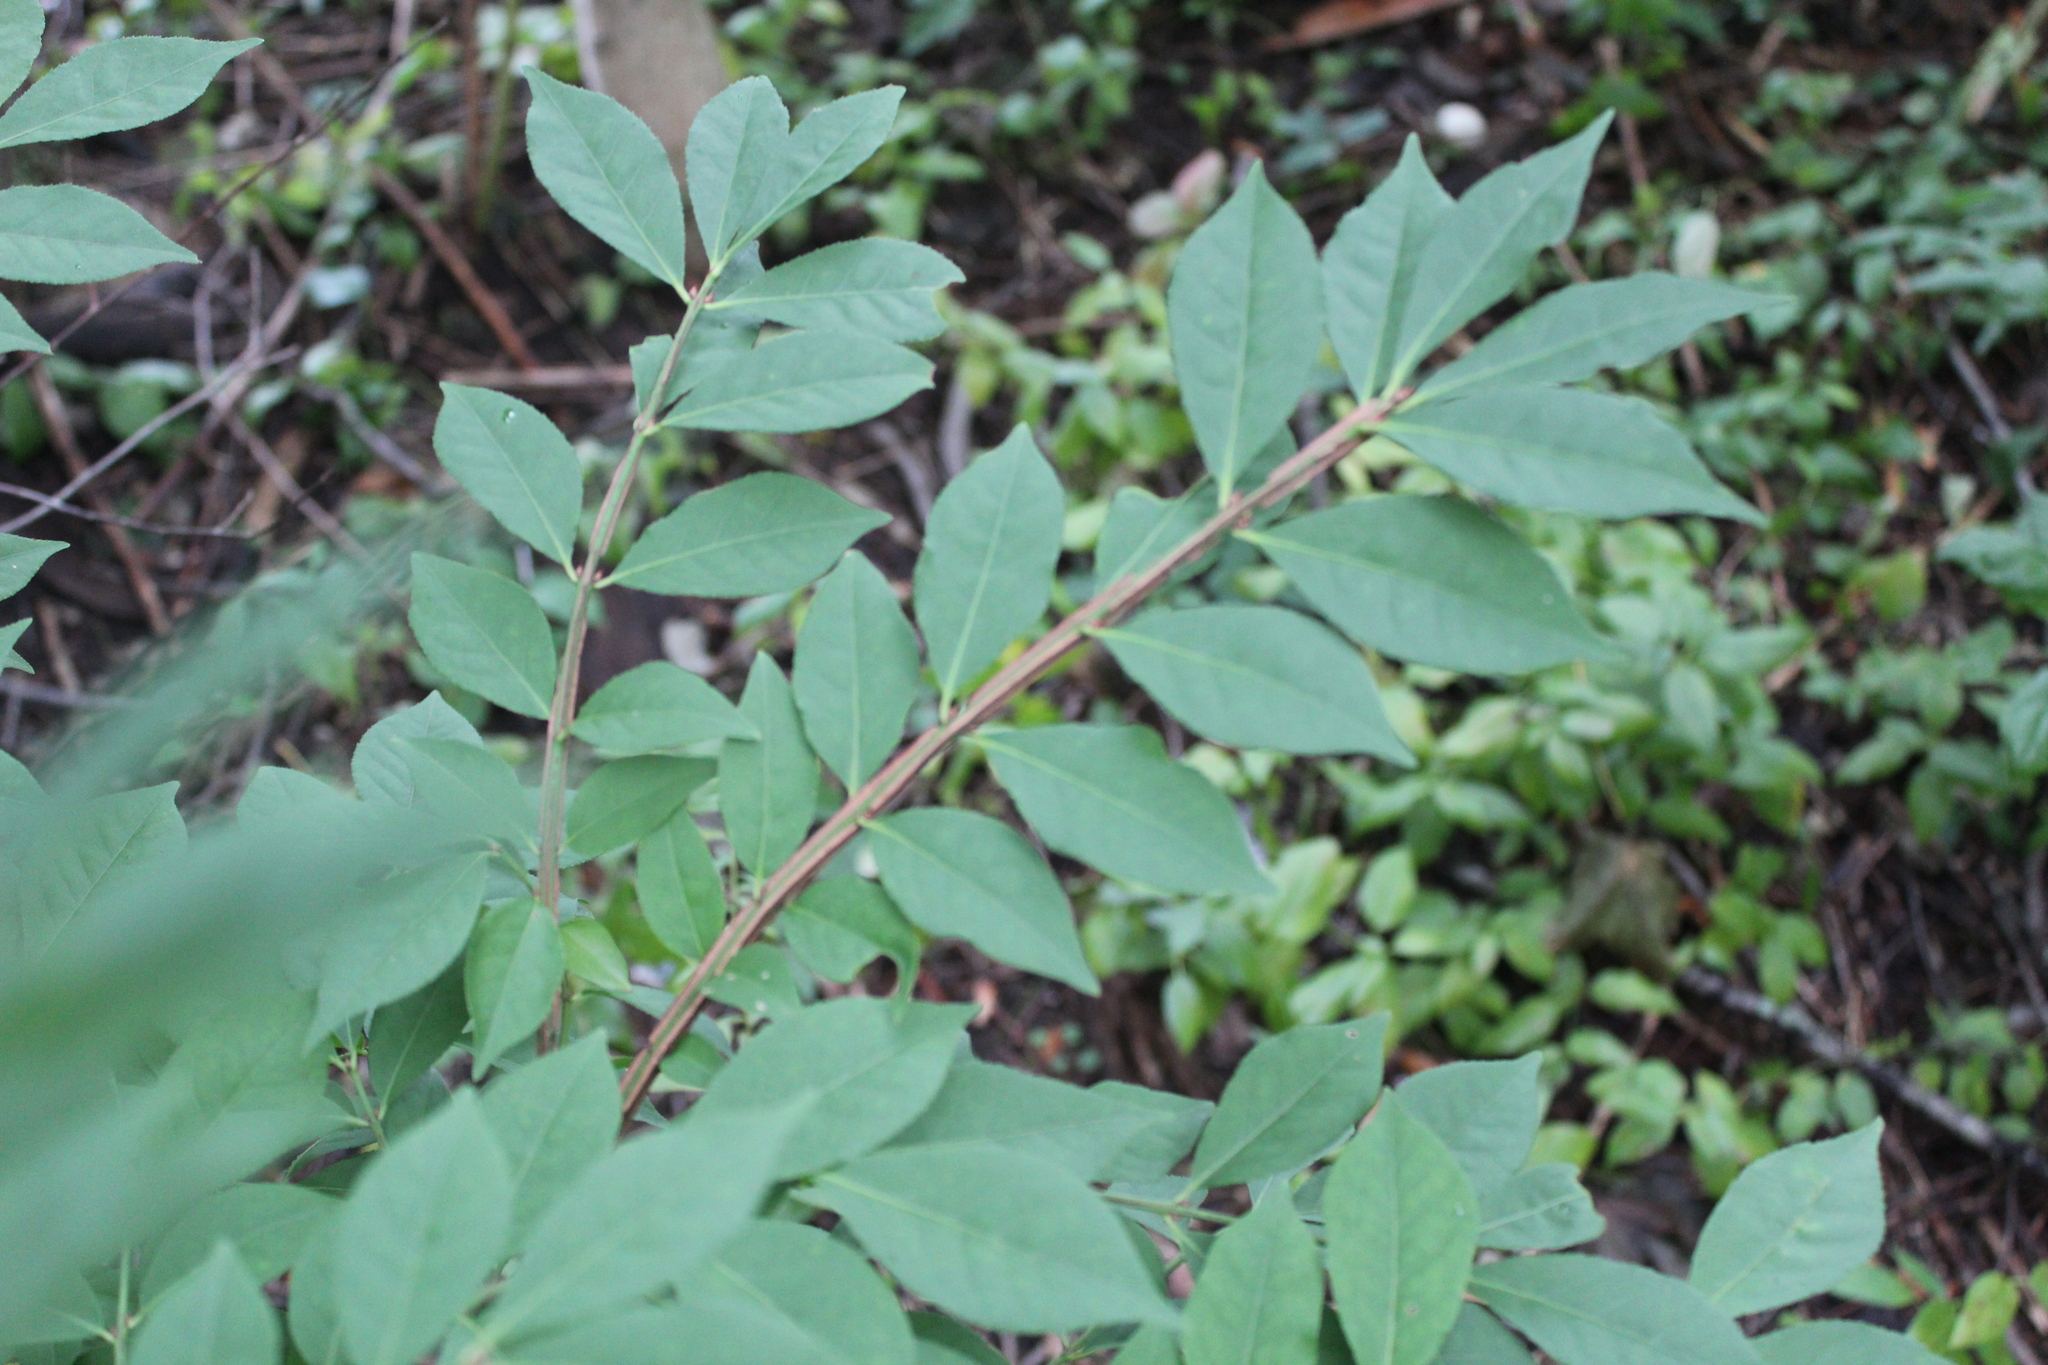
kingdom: Plantae
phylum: Tracheophyta
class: Magnoliopsida
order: Celastrales
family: Celastraceae
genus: Euonymus
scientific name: Euonymus alatus
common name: Winged euonymus
